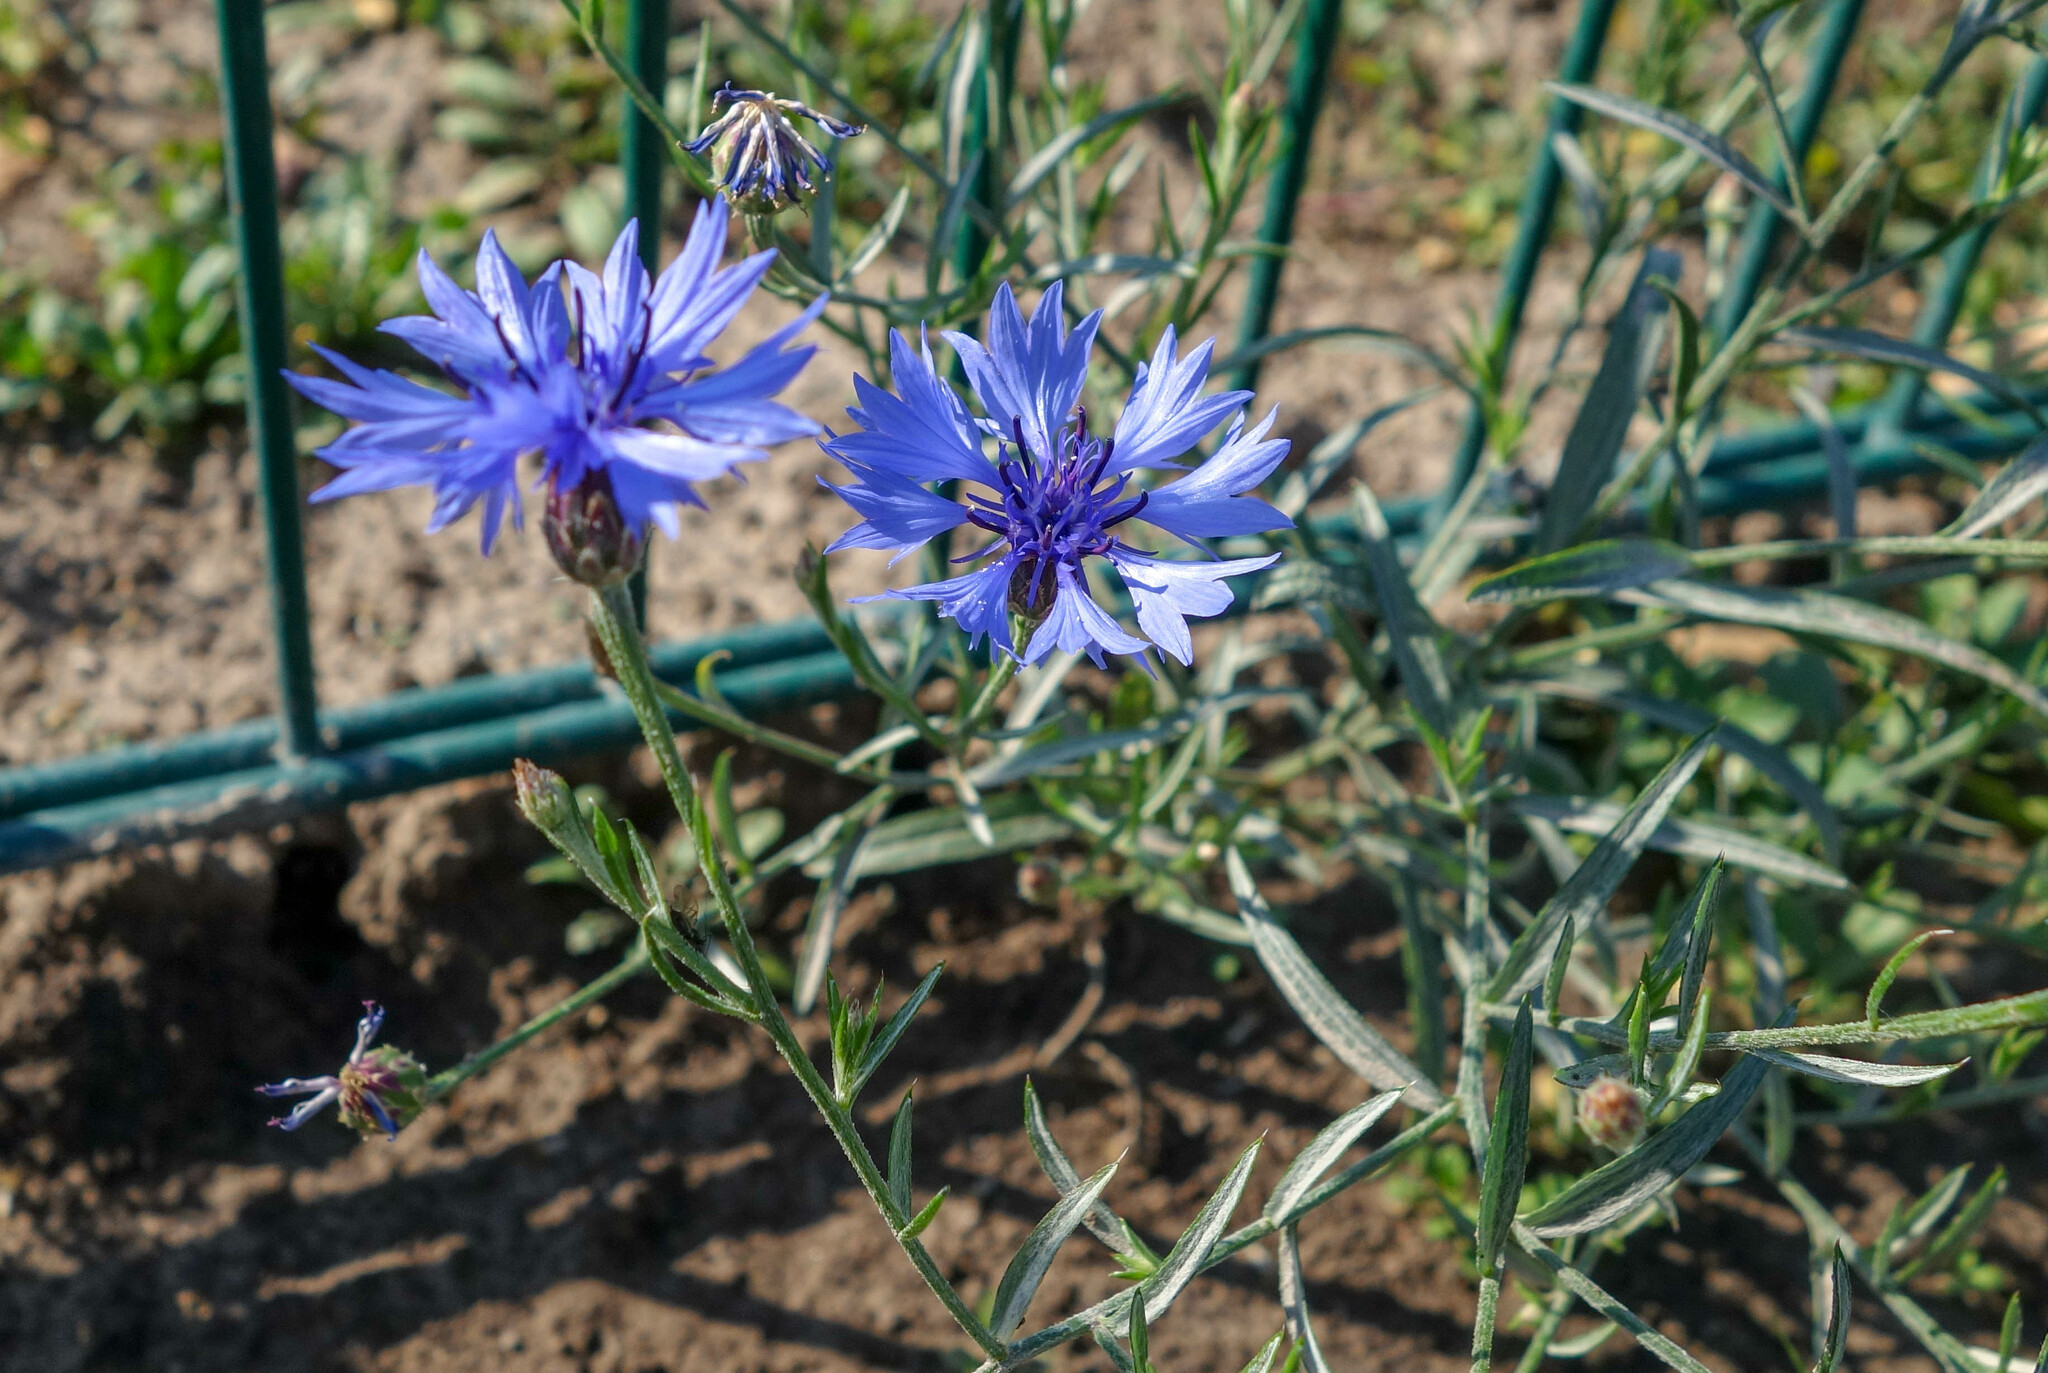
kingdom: Plantae
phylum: Tracheophyta
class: Magnoliopsida
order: Asterales
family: Asteraceae
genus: Centaurea
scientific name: Centaurea cyanus
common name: Cornflower
